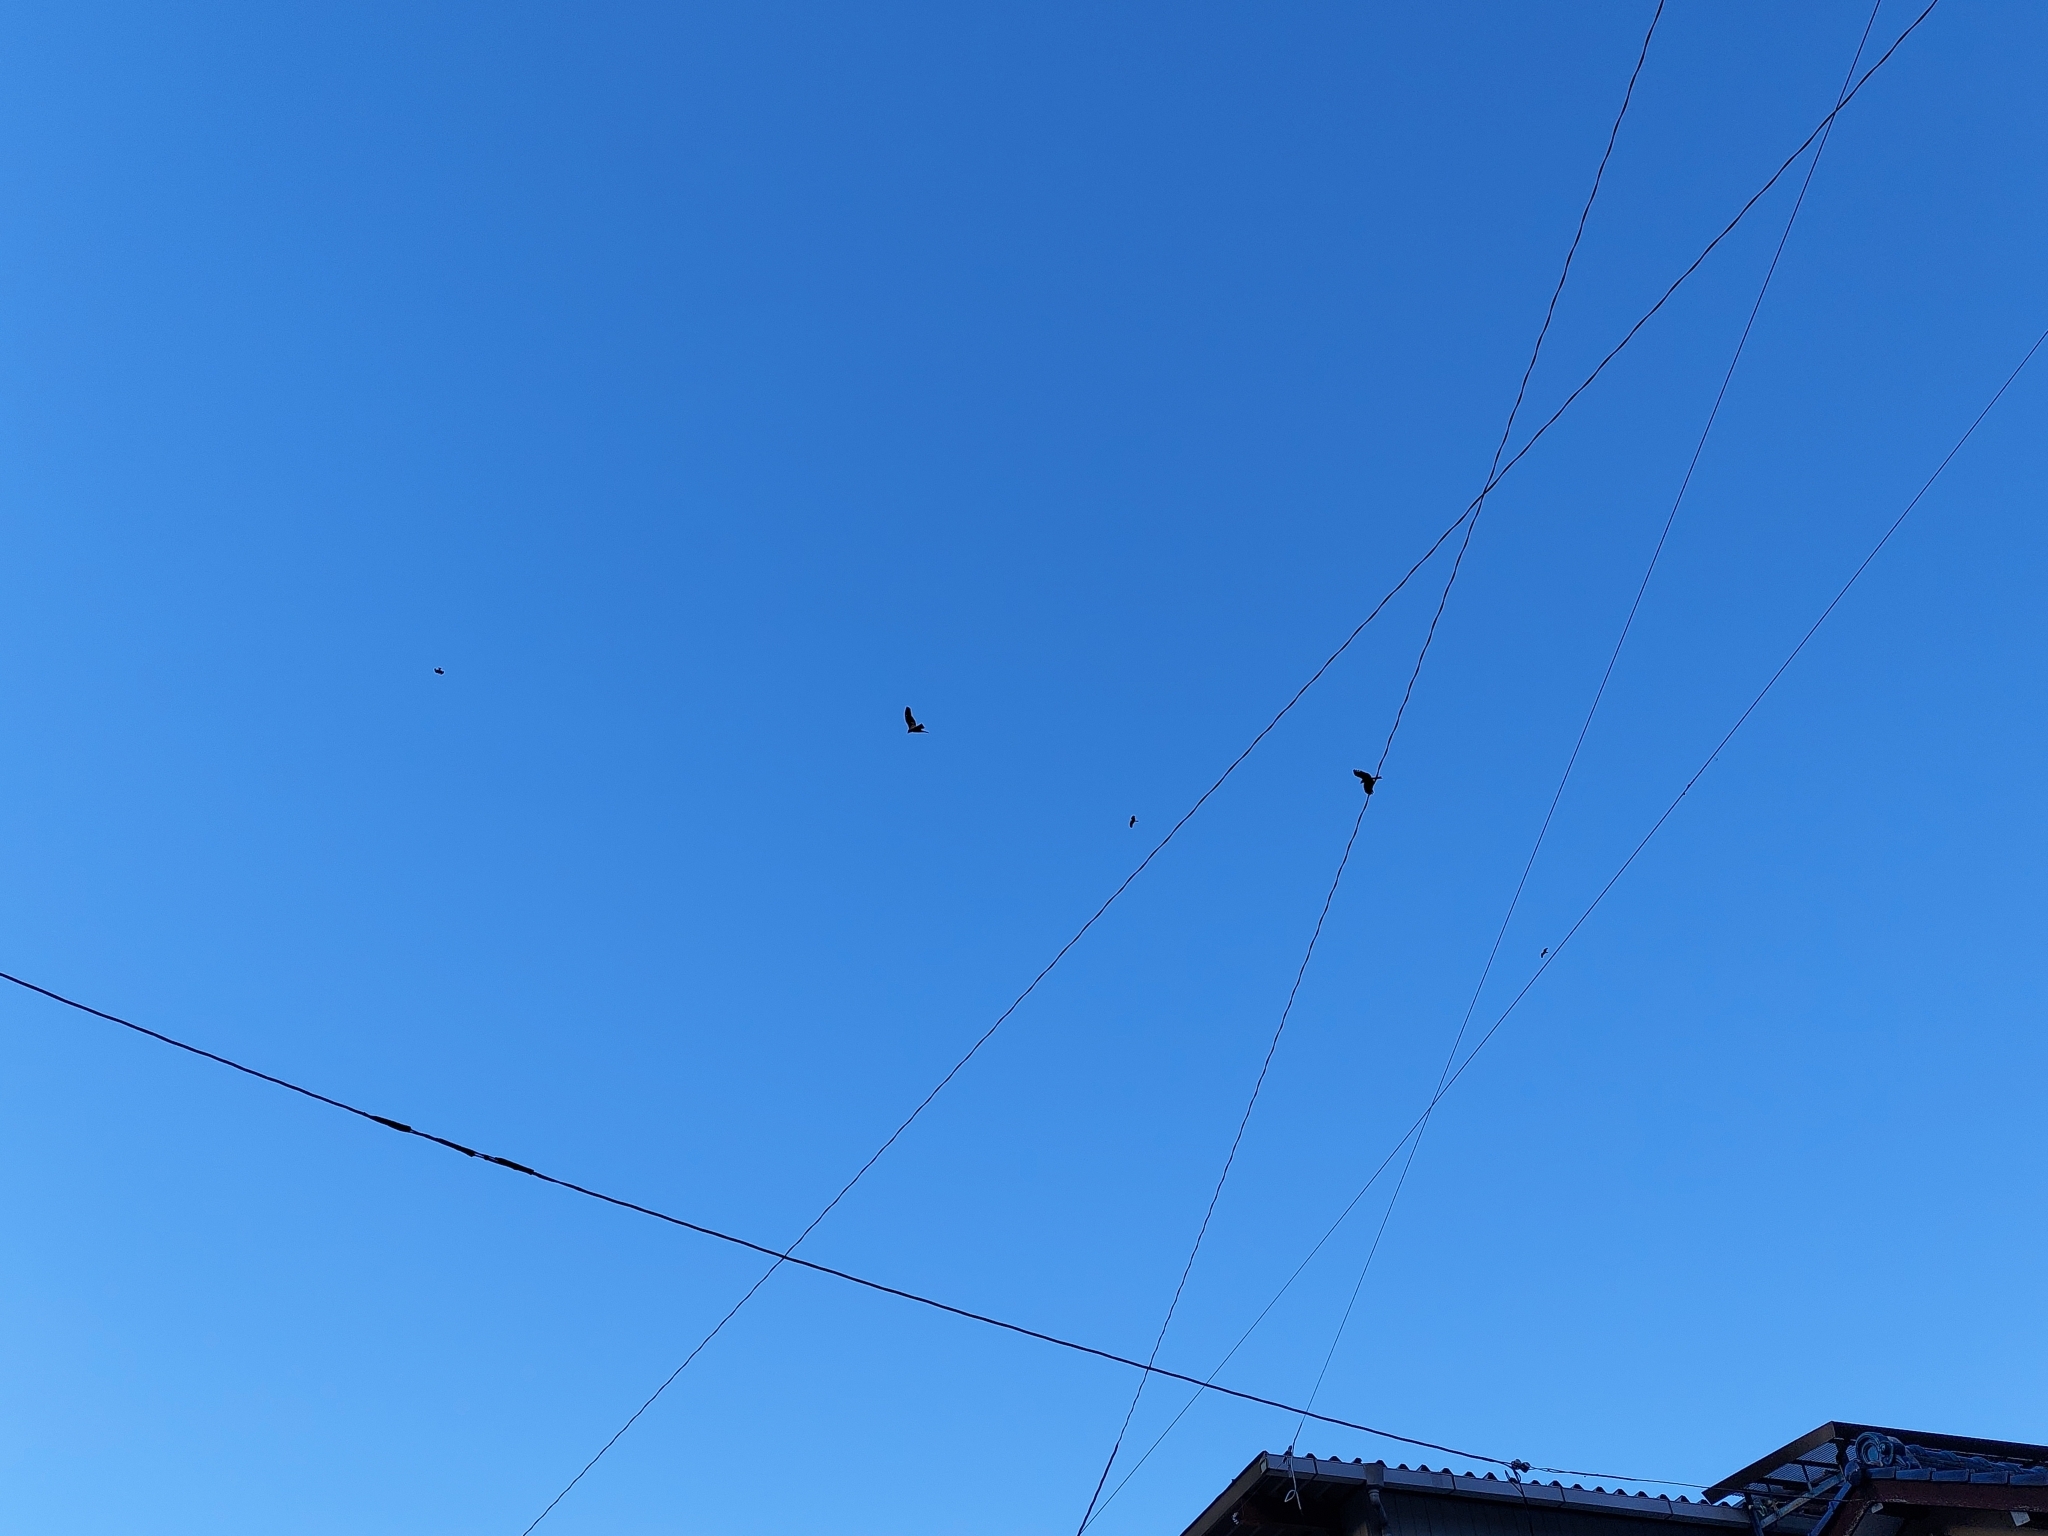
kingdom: Animalia
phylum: Chordata
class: Aves
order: Accipitriformes
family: Accipitridae
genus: Milvus
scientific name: Milvus migrans
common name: Black kite
